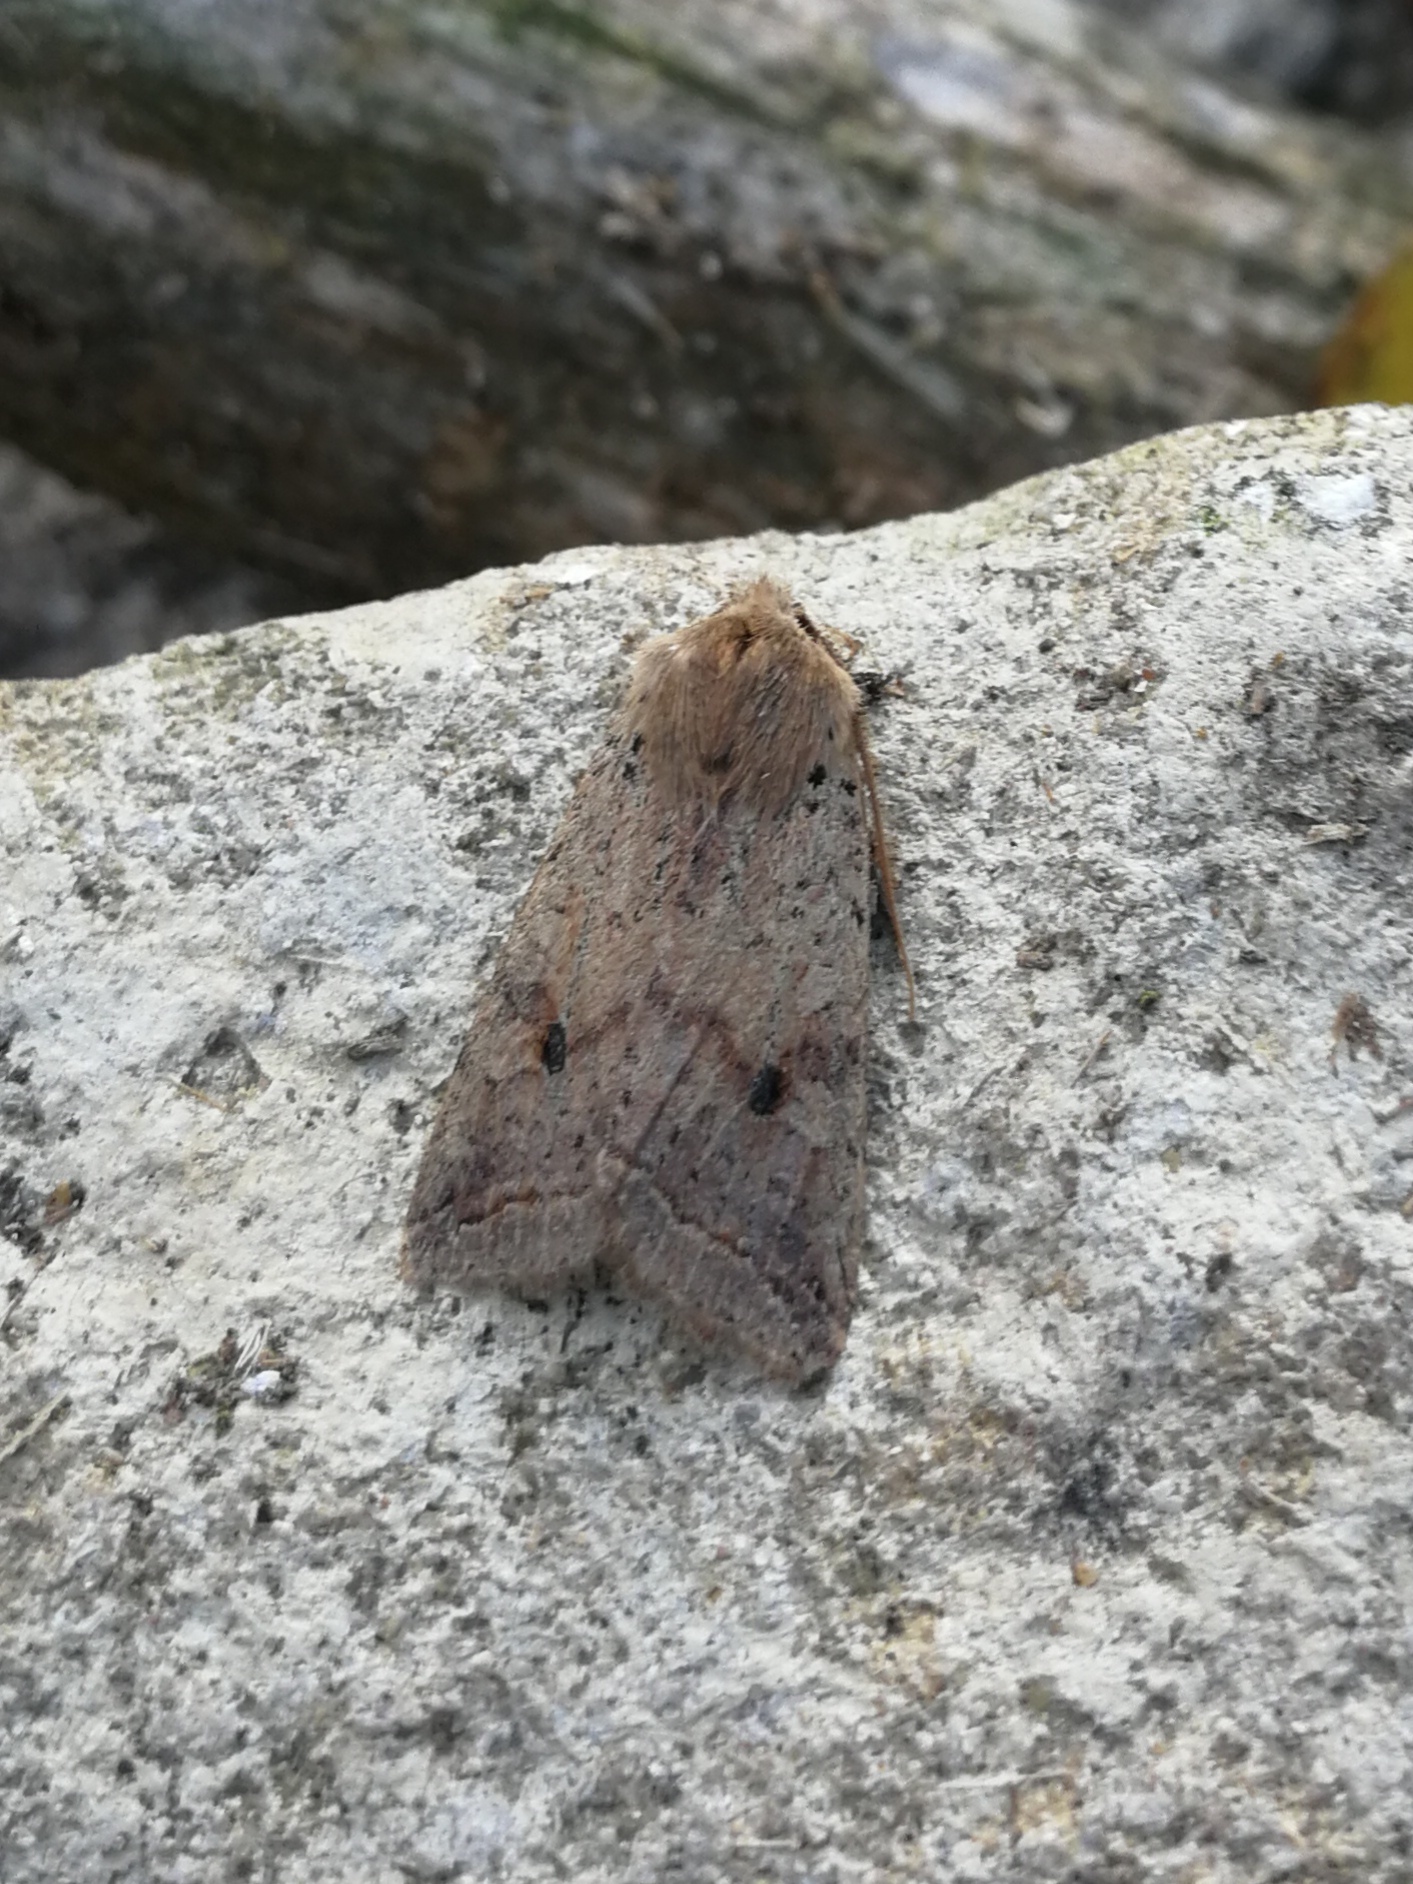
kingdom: Animalia
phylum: Arthropoda
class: Insecta
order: Lepidoptera
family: Noctuidae
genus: Agrochola
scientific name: Agrochola blidaensis
